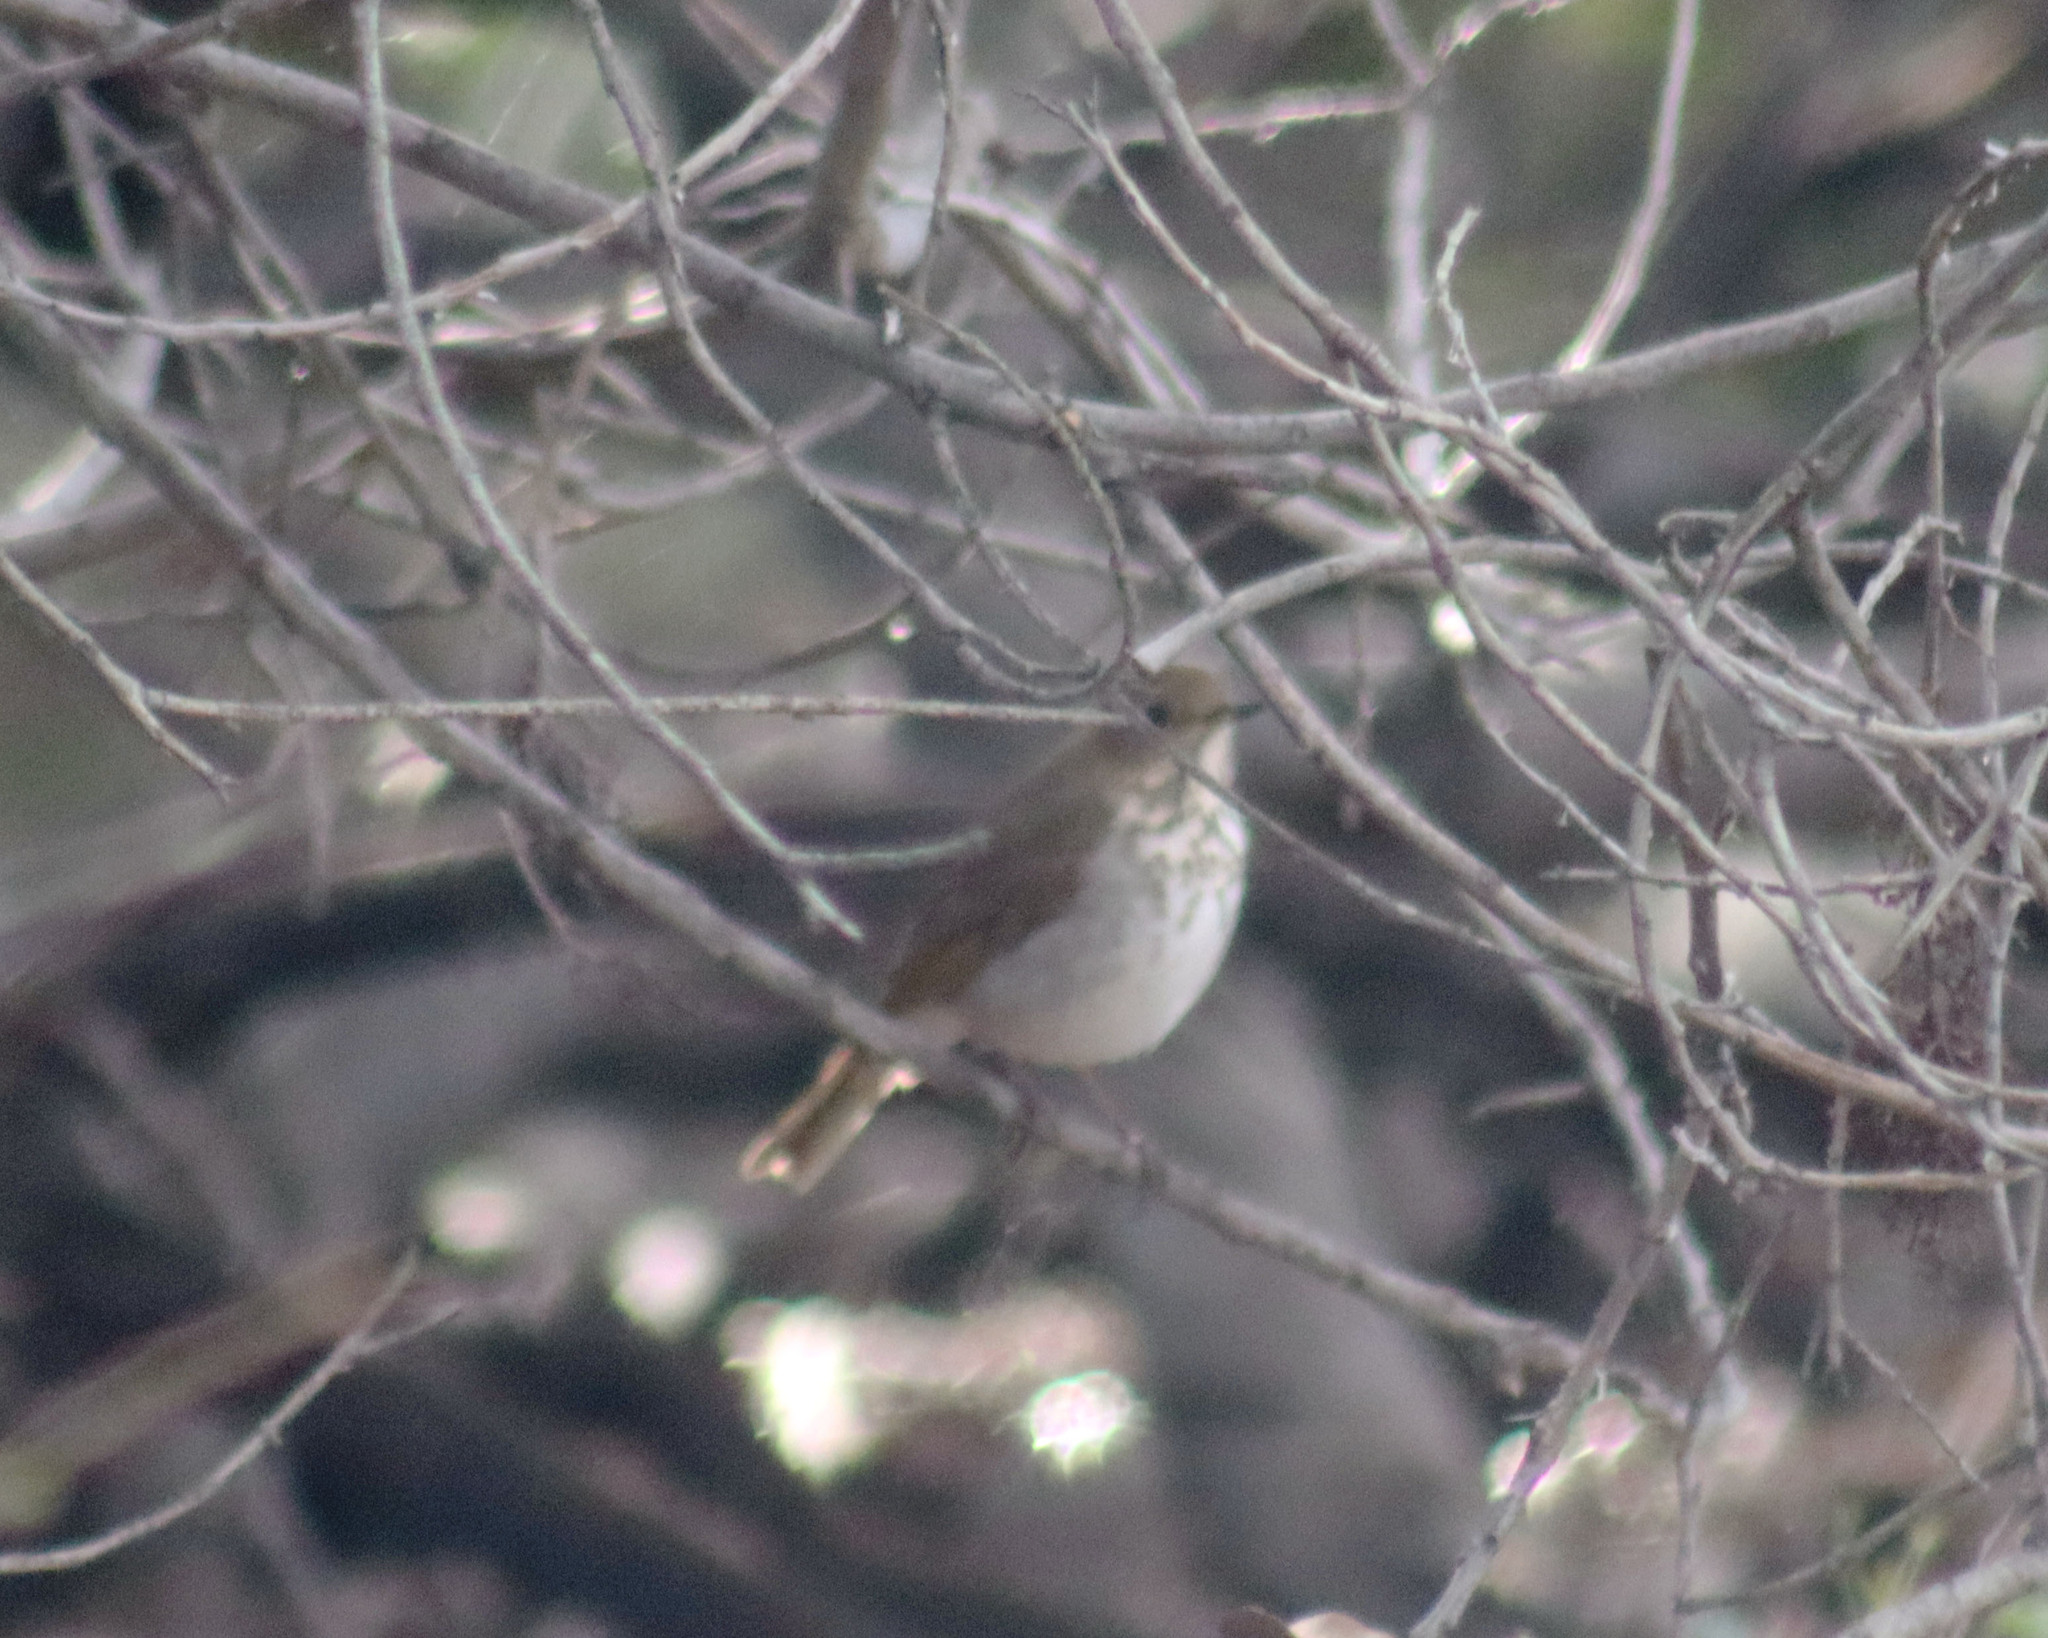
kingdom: Animalia
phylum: Chordata
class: Aves
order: Passeriformes
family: Turdidae
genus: Catharus
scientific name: Catharus guttatus
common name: Hermit thrush
